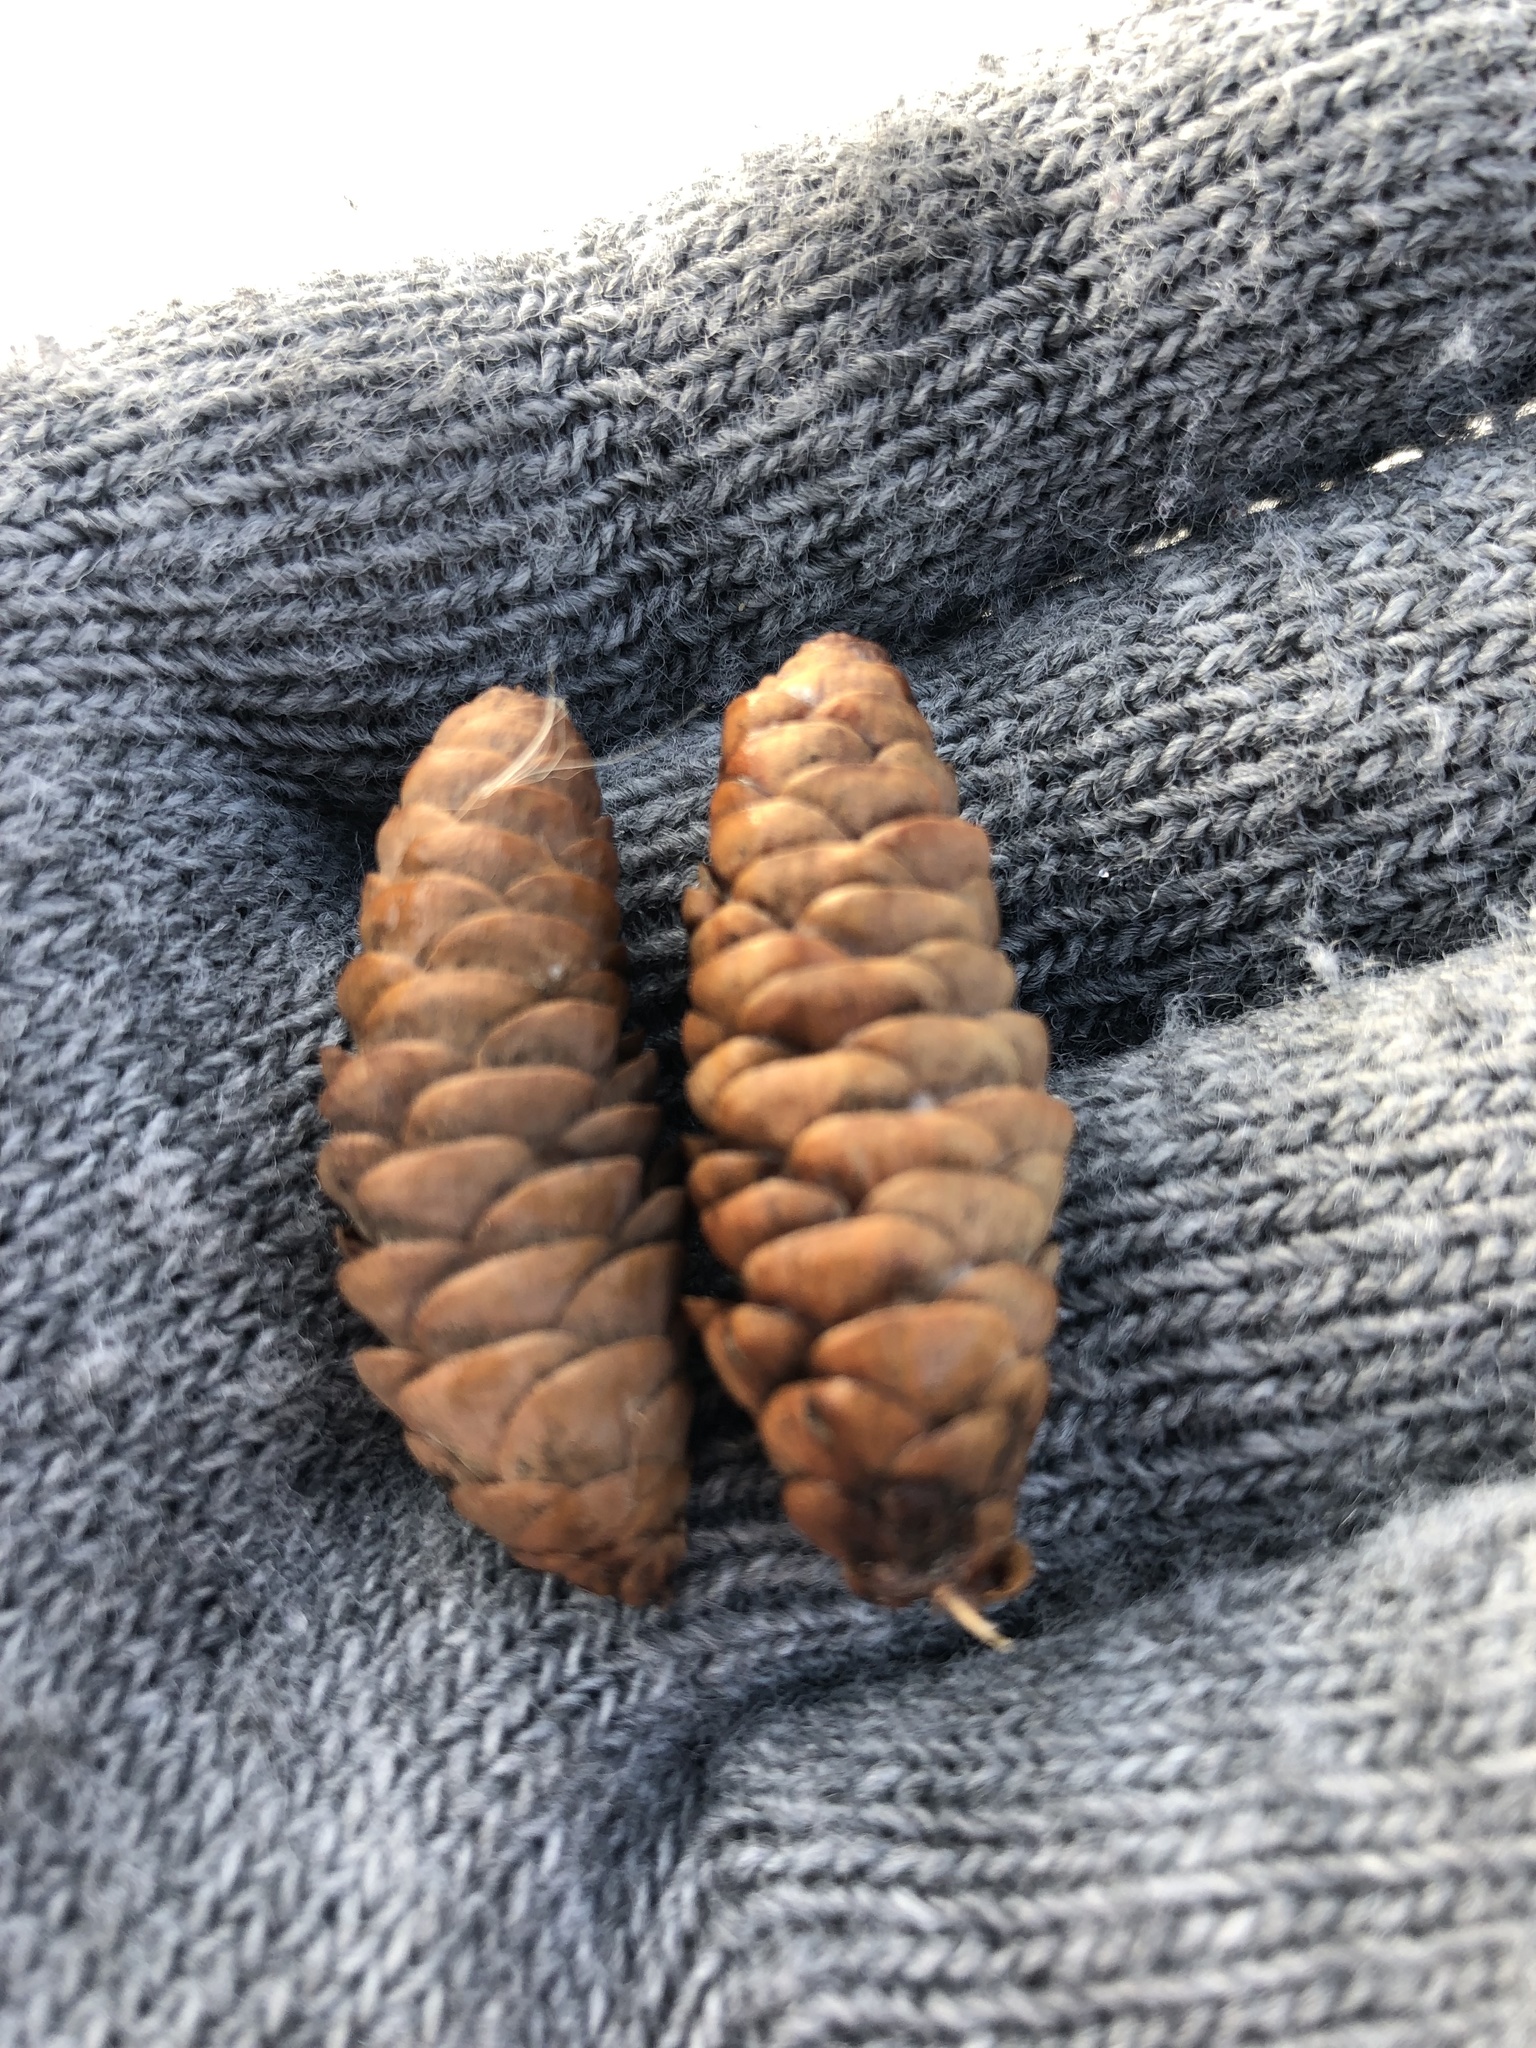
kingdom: Plantae
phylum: Tracheophyta
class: Pinopsida
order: Pinales
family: Pinaceae
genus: Picea
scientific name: Picea glauca
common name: White spruce
